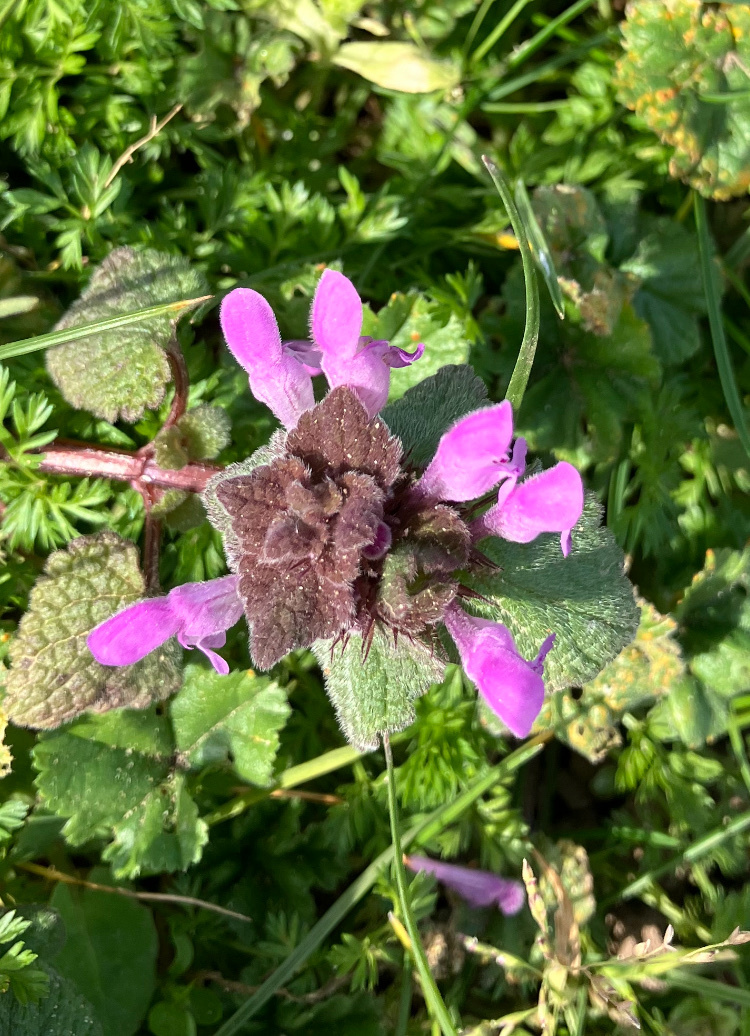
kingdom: Plantae
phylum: Tracheophyta
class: Magnoliopsida
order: Lamiales
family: Lamiaceae
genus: Lamium
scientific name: Lamium purpureum
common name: Red dead-nettle
